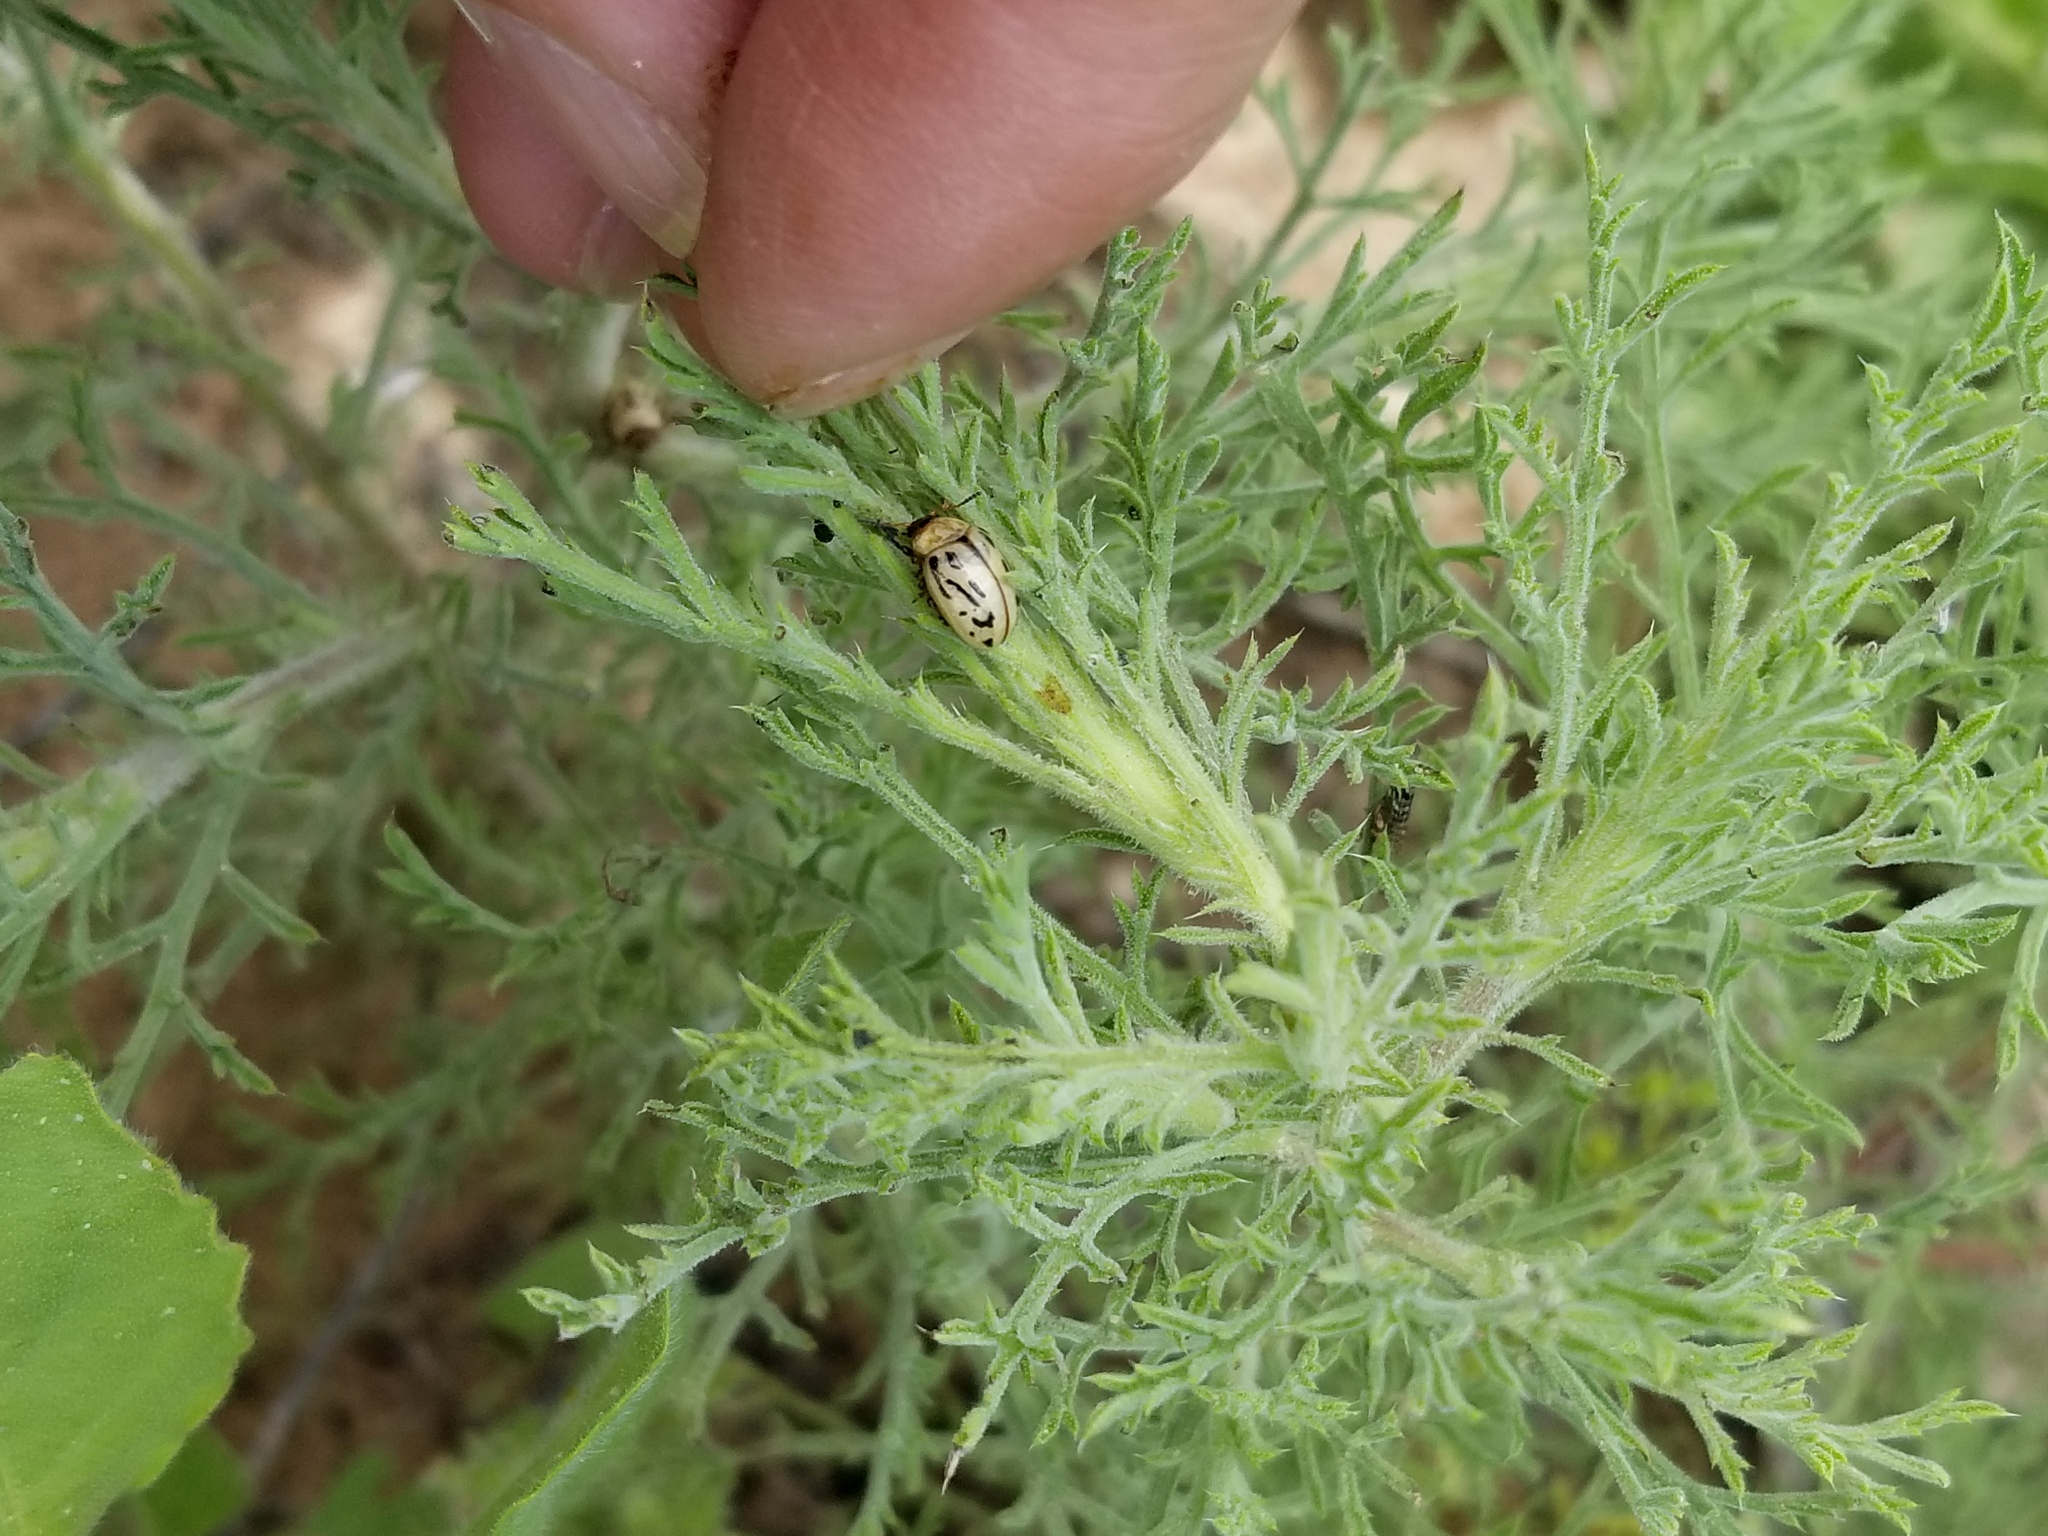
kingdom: Animalia
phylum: Arthropoda
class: Insecta
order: Coleoptera
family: Chrysomelidae
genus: Calligrapha
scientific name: Calligrapha
